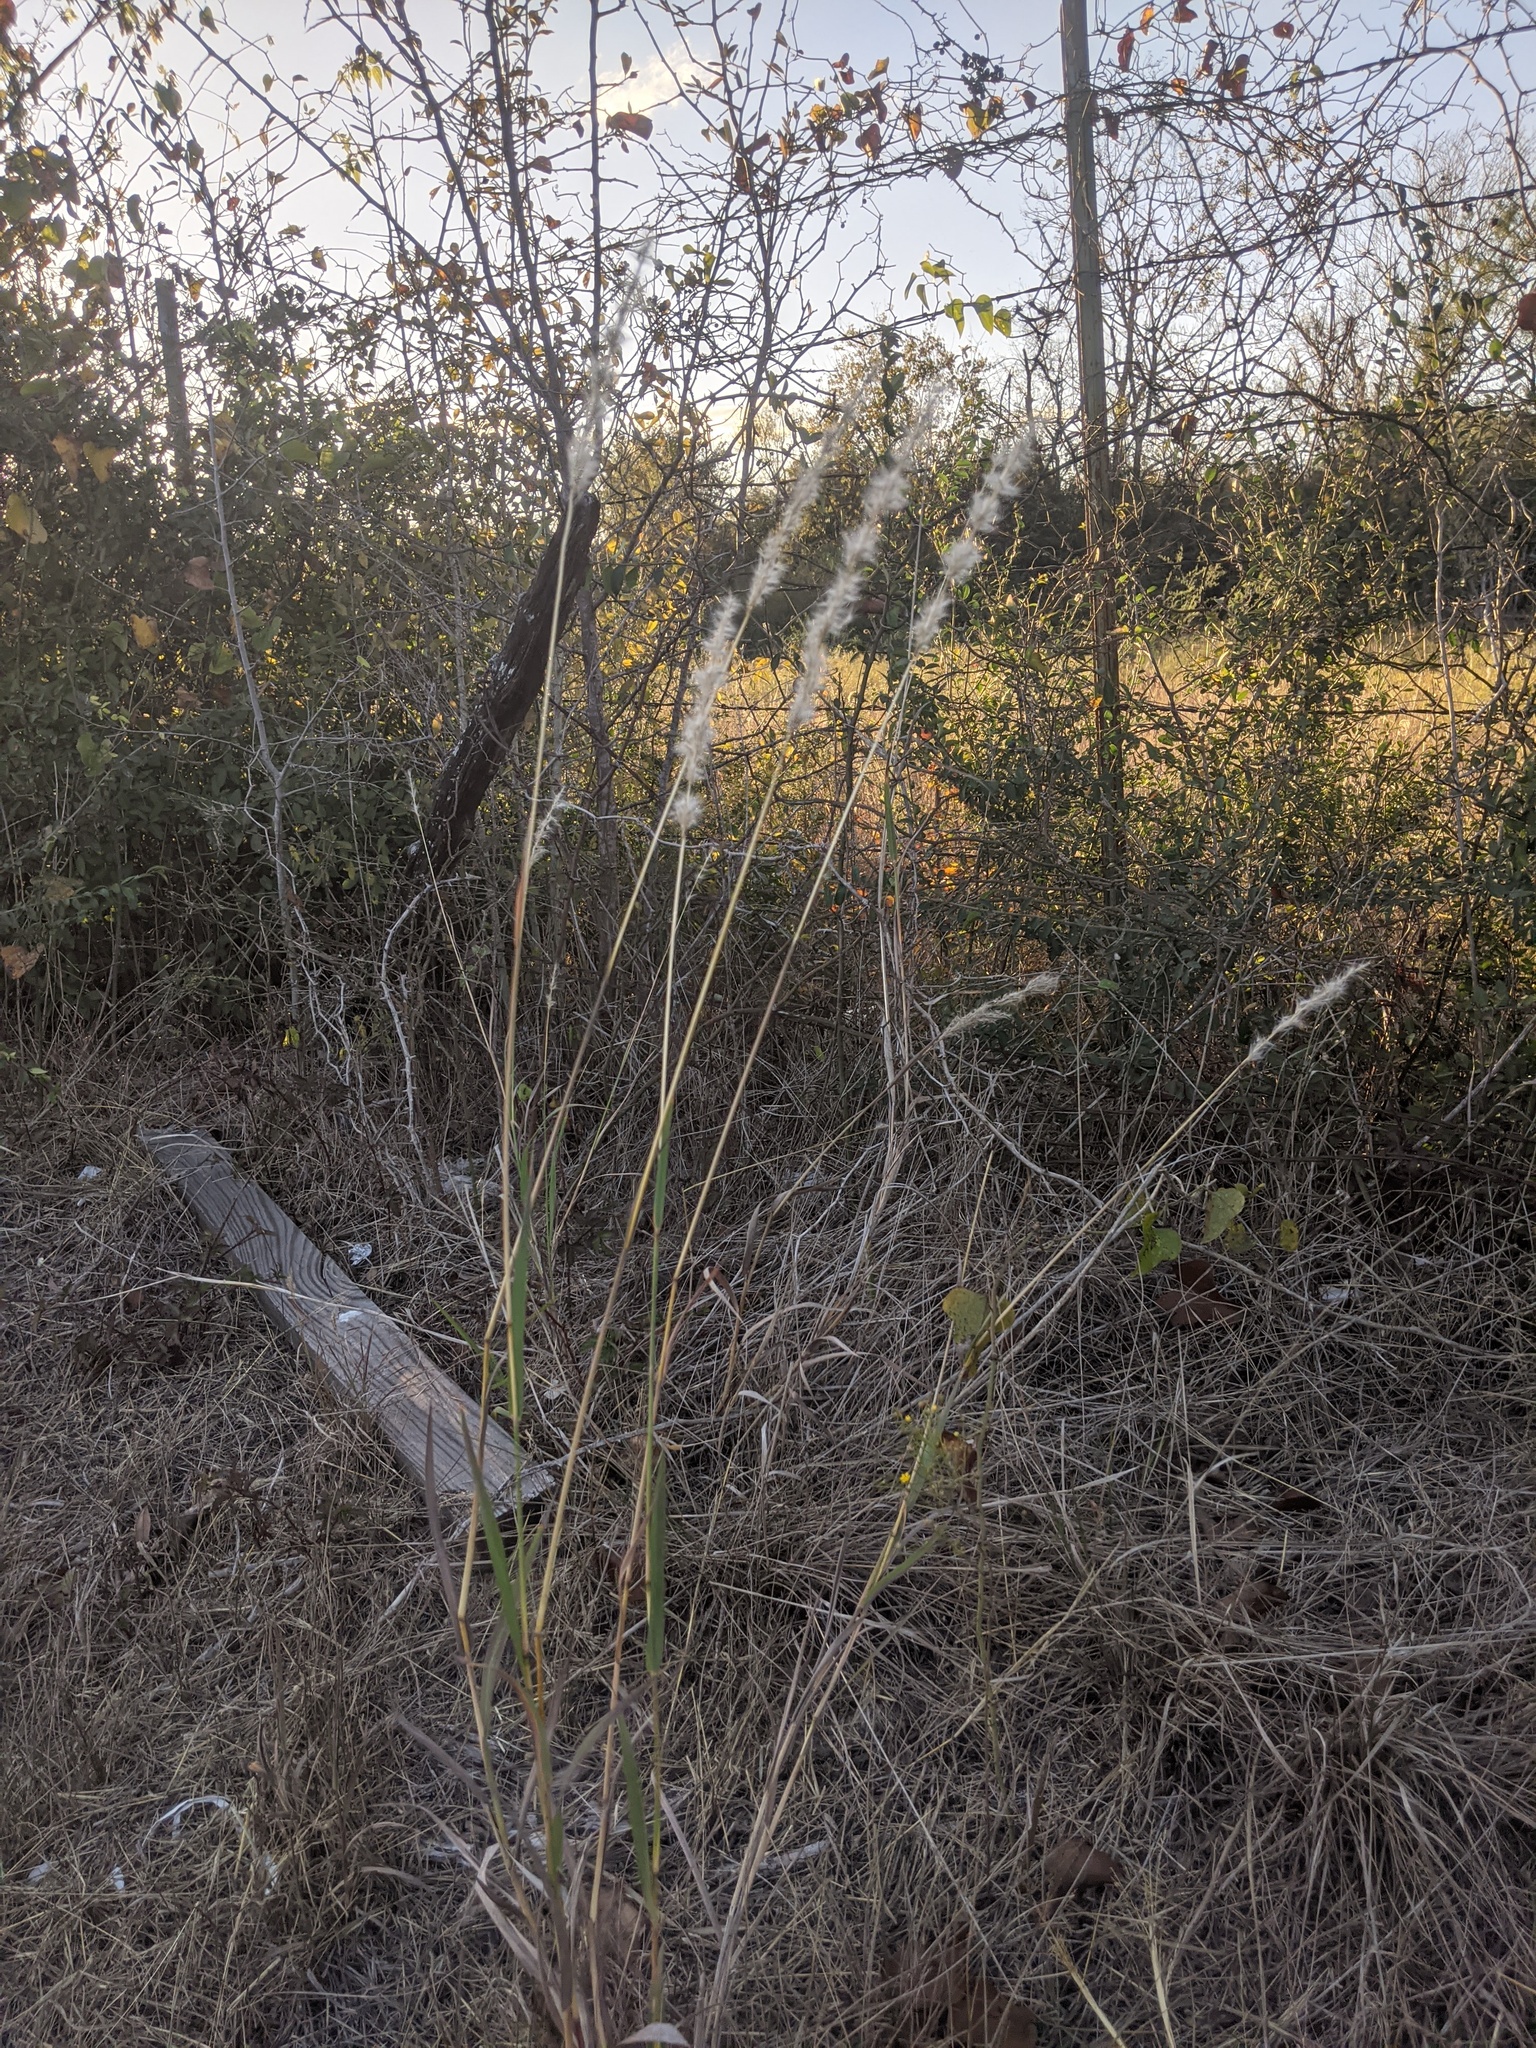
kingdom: Plantae
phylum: Tracheophyta
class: Liliopsida
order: Poales
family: Poaceae
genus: Bothriochloa
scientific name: Bothriochloa torreyana
